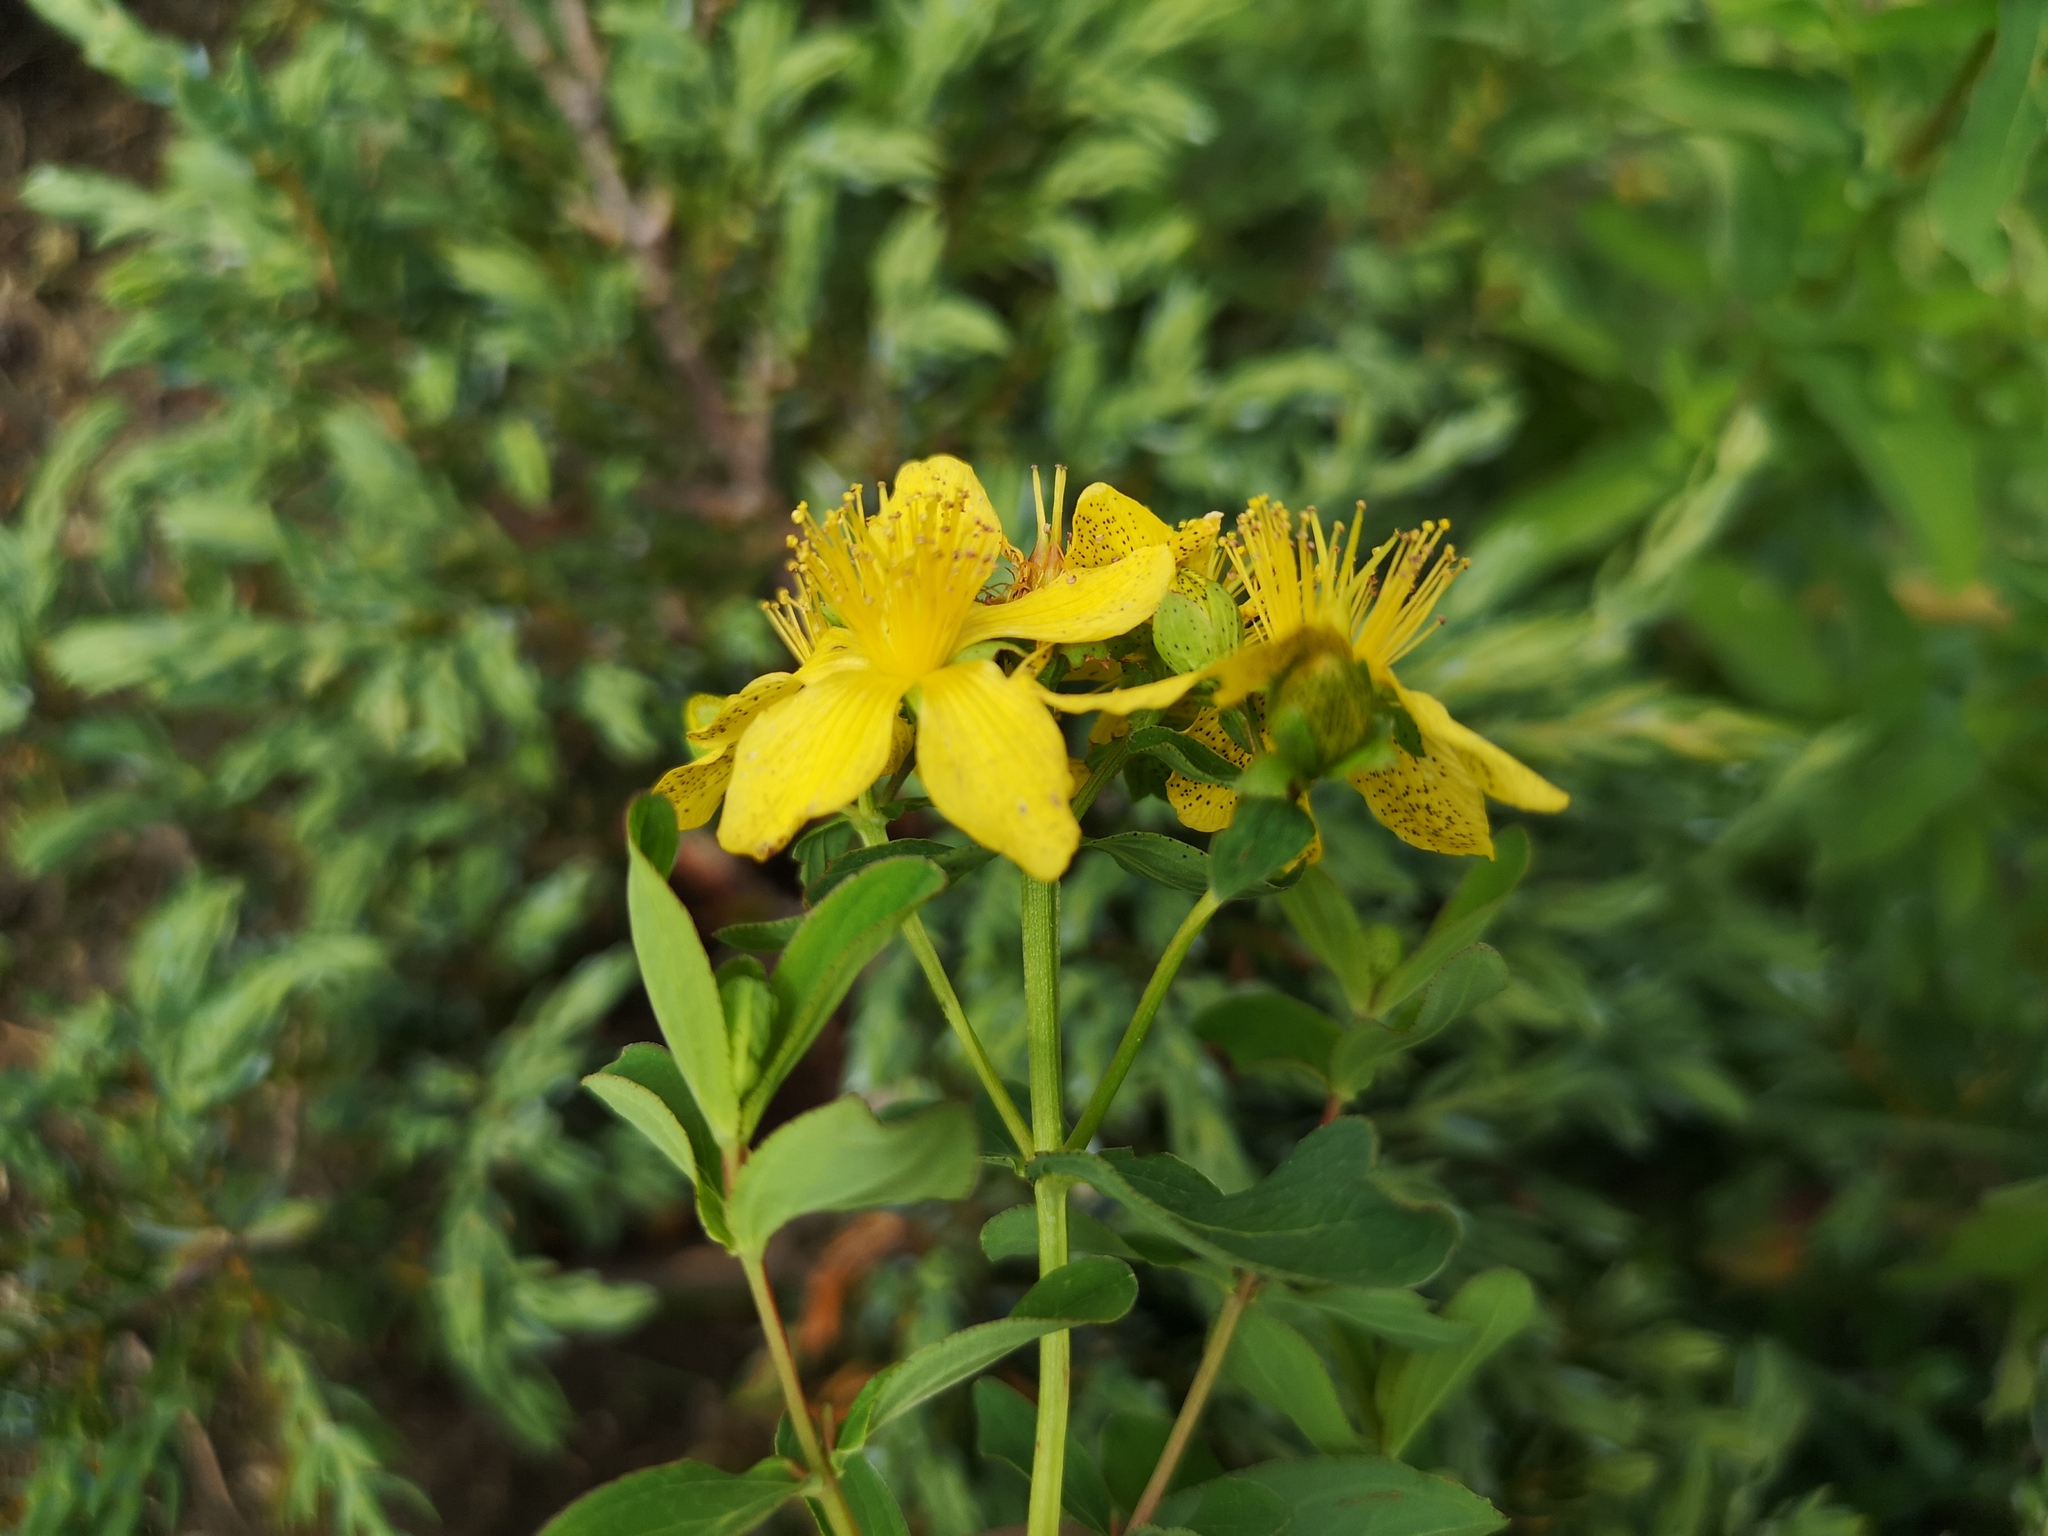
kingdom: Plantae
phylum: Tracheophyta
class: Magnoliopsida
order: Malpighiales
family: Hypericaceae
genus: Hypericum
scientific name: Hypericum maculatum
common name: Imperforate st. john's-wort
